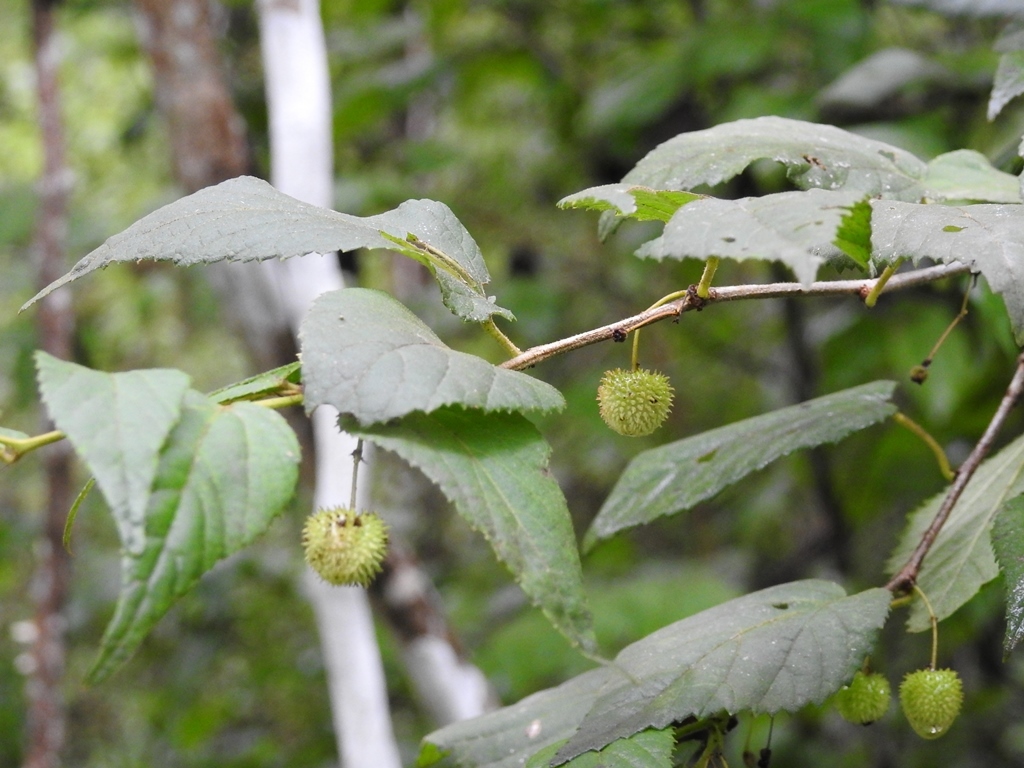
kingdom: Plantae
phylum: Tracheophyta
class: Magnoliopsida
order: Malvales
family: Malvaceae
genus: Ayenia
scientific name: Ayenia micrantha
